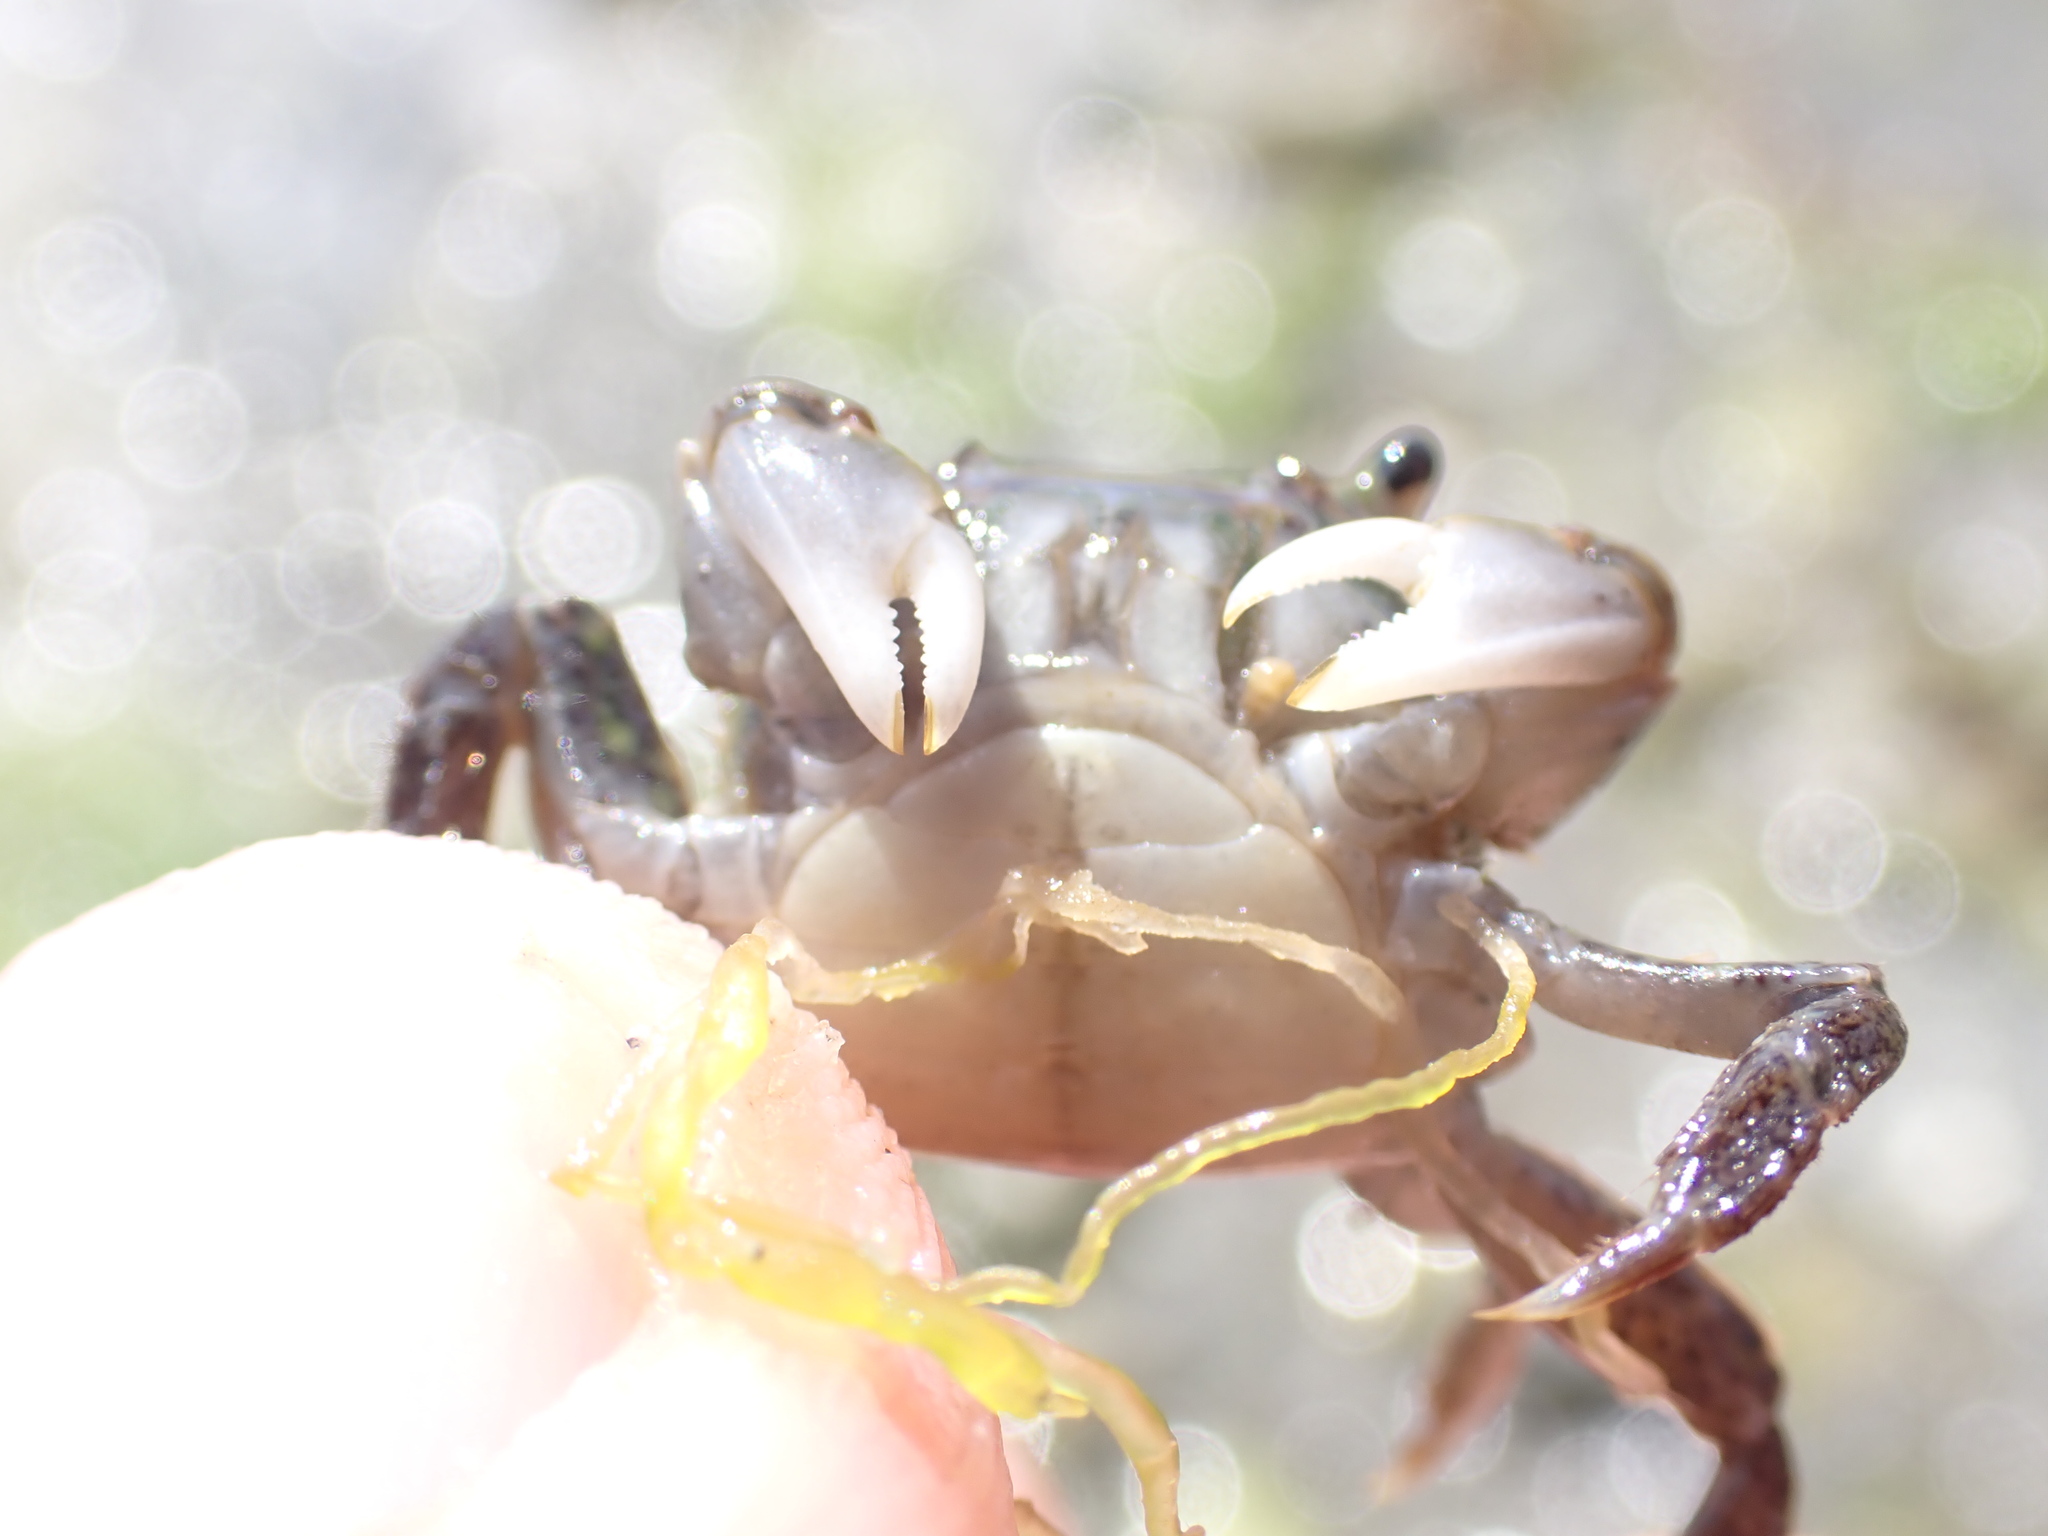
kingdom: Animalia
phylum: Arthropoda
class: Malacostraca
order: Decapoda
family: Varunidae
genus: Hemigrapsus
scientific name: Hemigrapsus oregonensis
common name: Yellow shore crab
